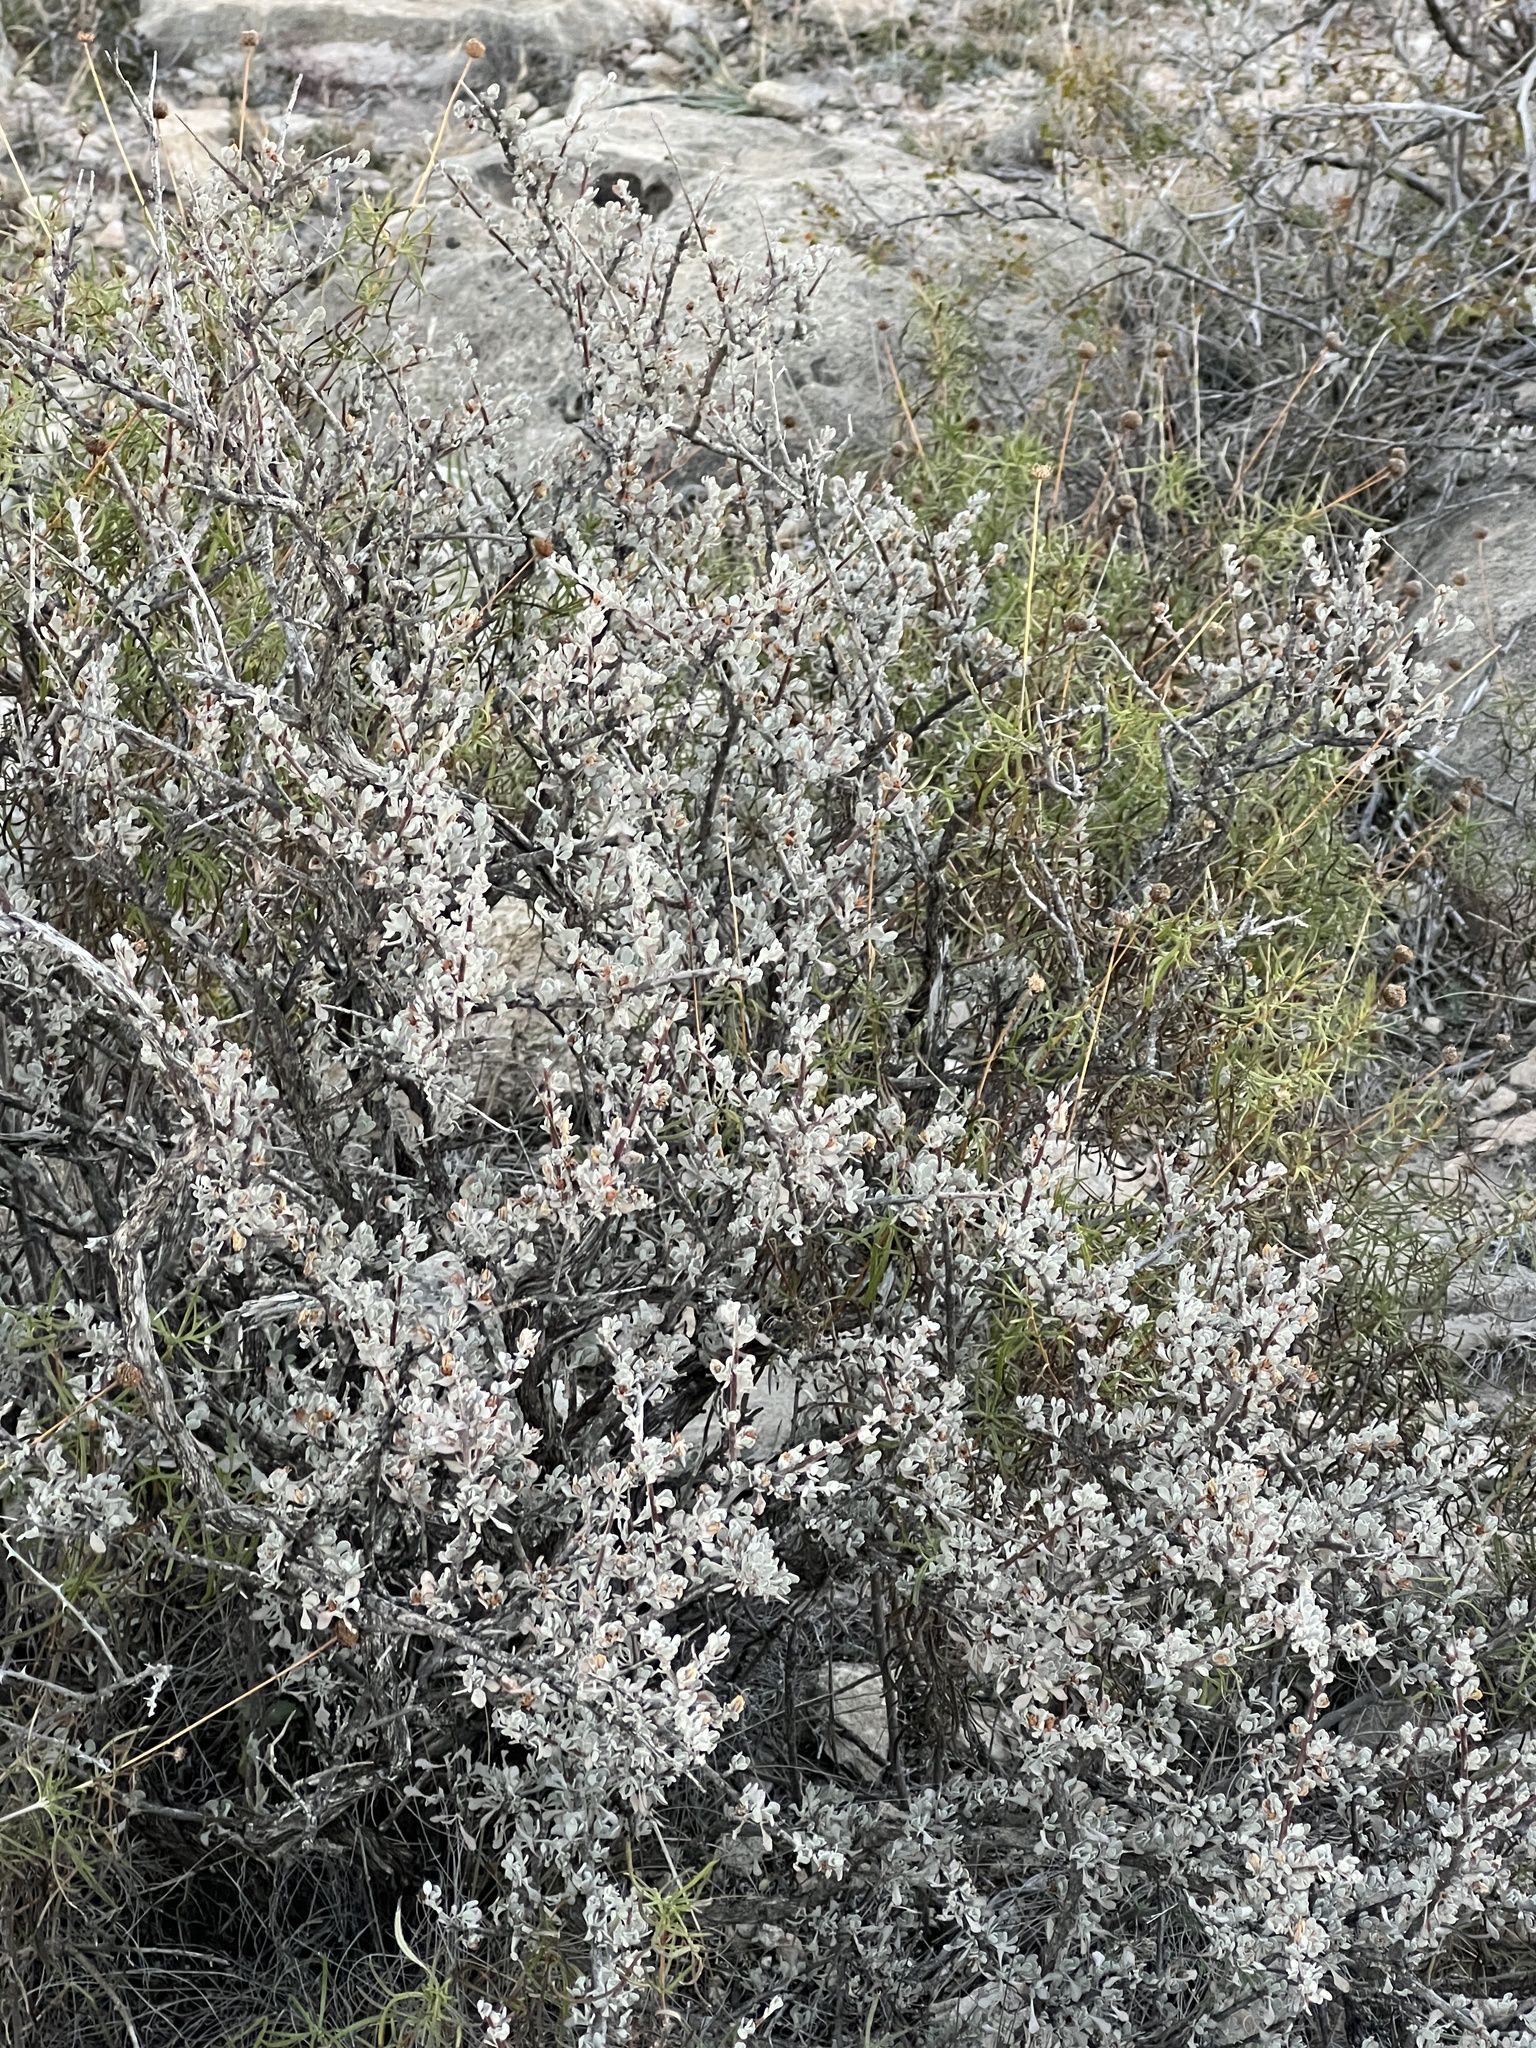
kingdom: Plantae
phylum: Tracheophyta
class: Magnoliopsida
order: Lamiales
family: Scrophulariaceae
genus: Leucophyllum
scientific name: Leucophyllum minus
